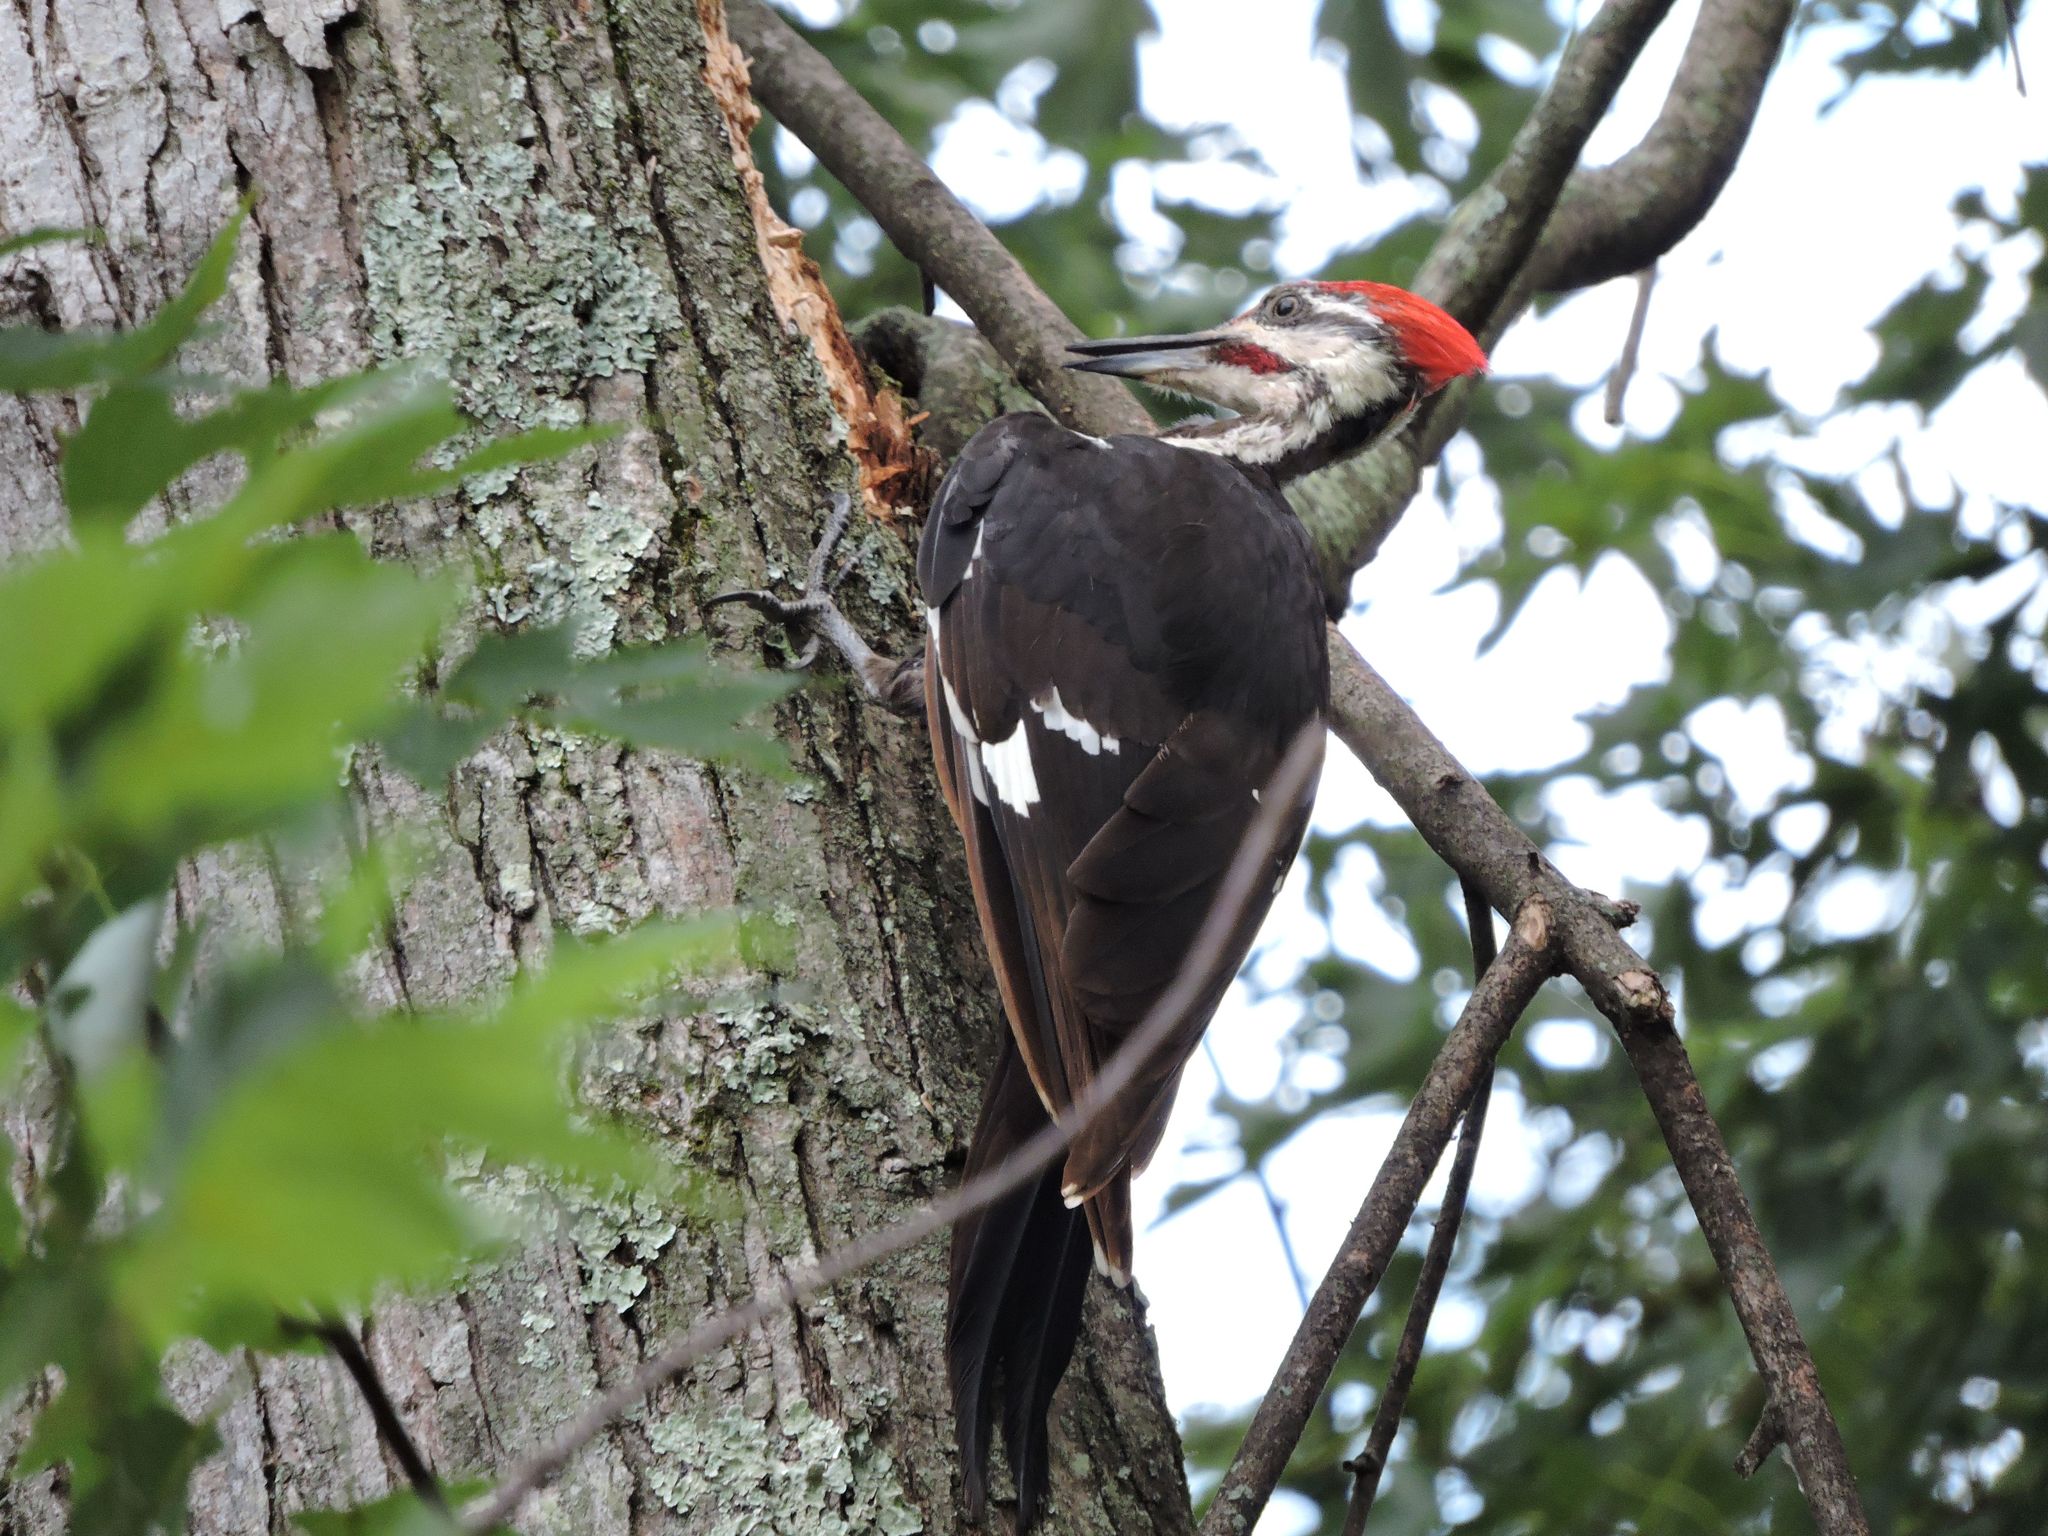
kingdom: Animalia
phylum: Chordata
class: Aves
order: Piciformes
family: Picidae
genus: Dryocopus
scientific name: Dryocopus pileatus
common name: Pileated woodpecker
